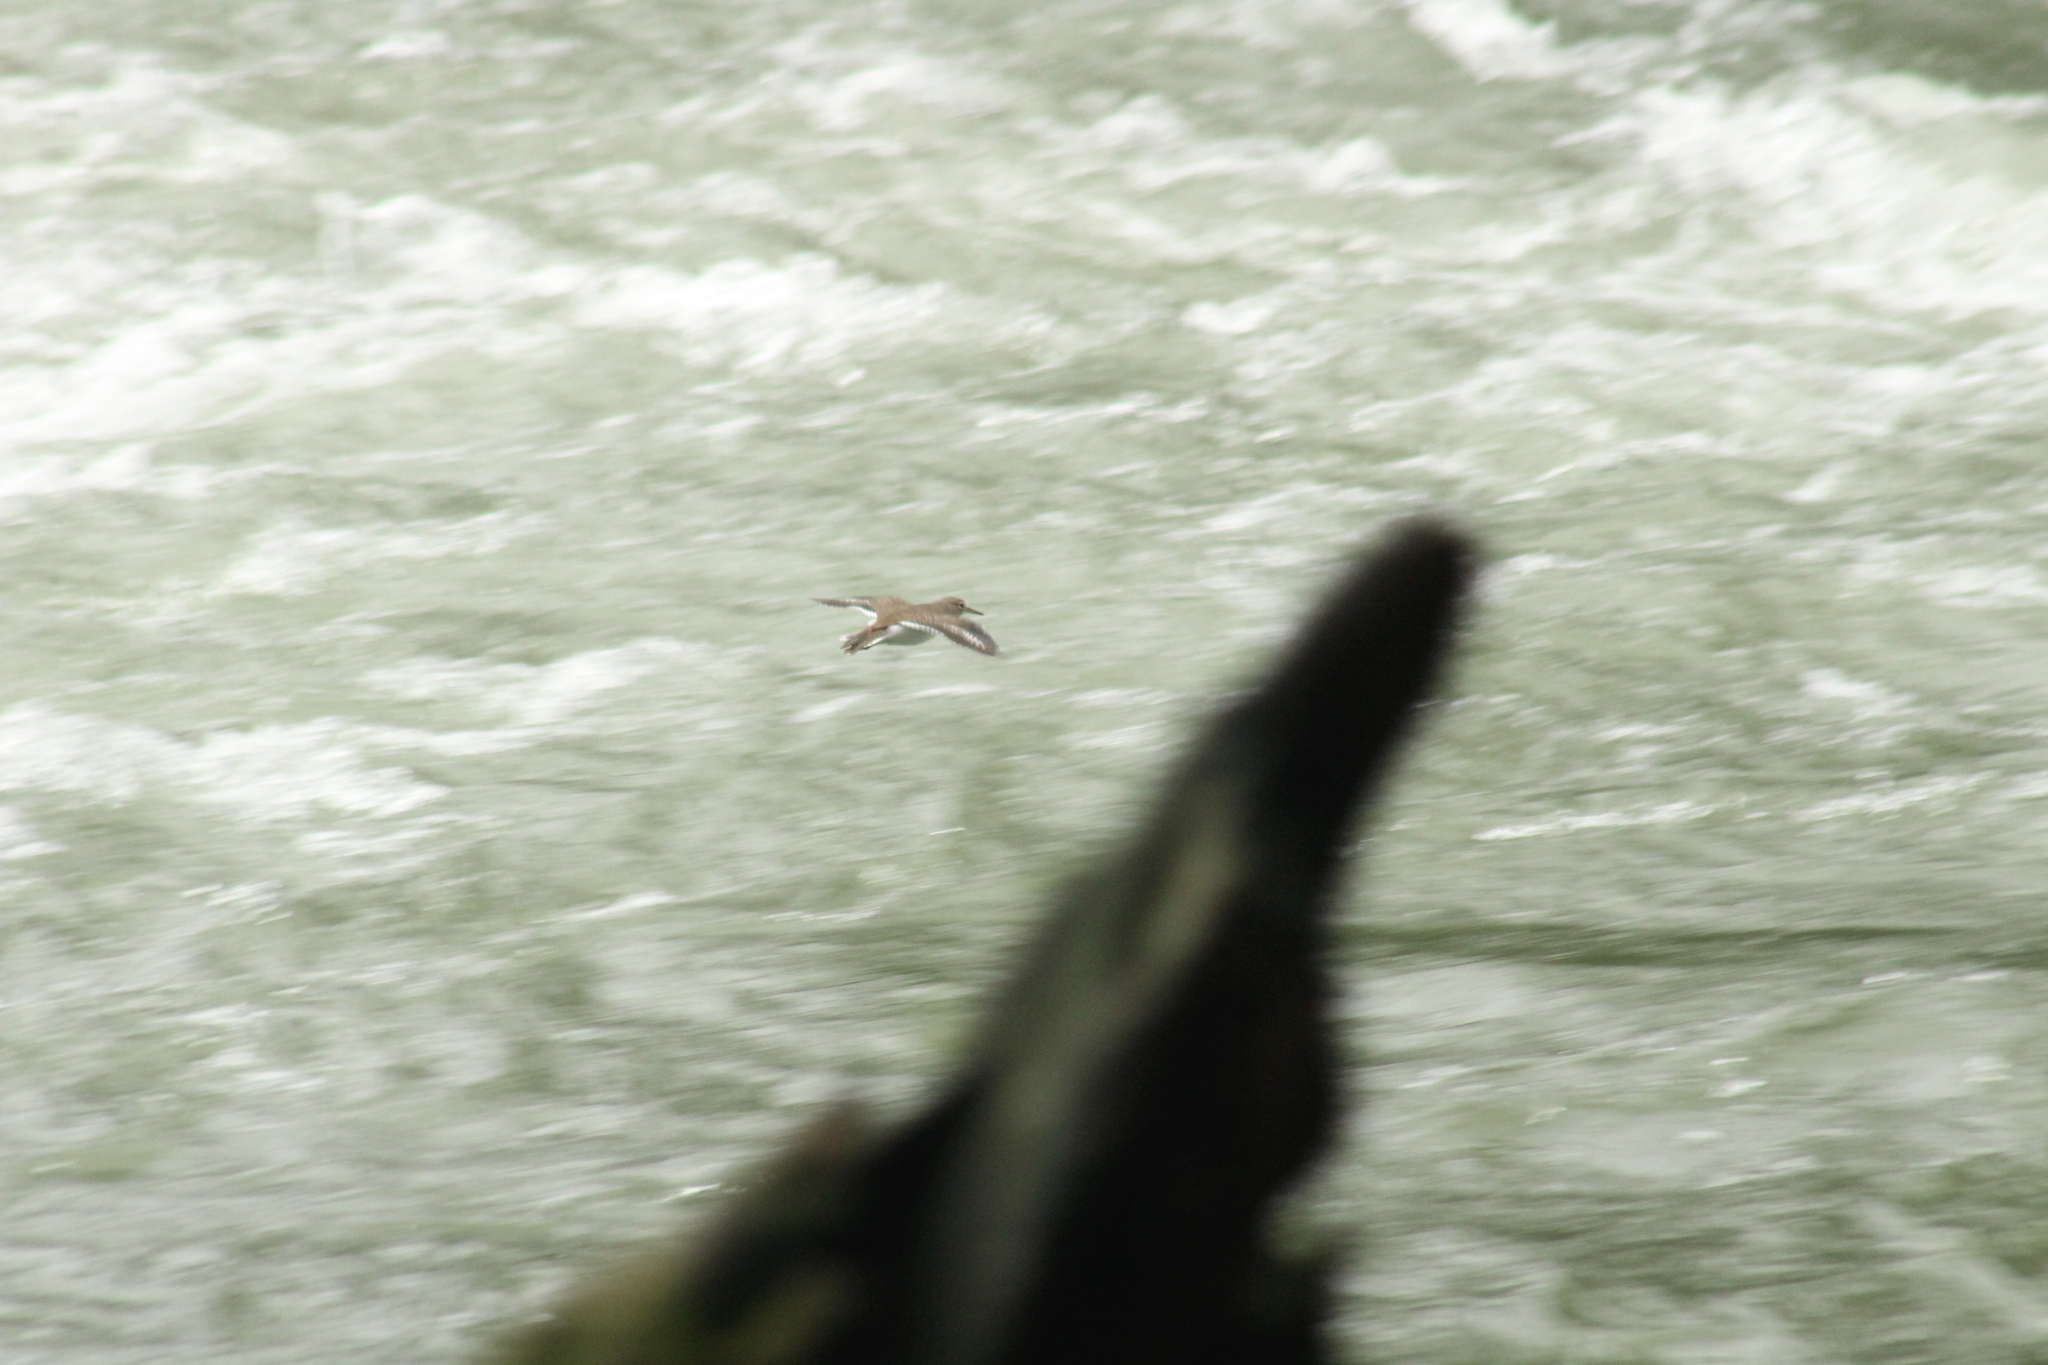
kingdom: Animalia
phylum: Chordata
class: Aves
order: Charadriiformes
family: Scolopacidae
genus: Actitis
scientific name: Actitis macularius
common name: Spotted sandpiper
